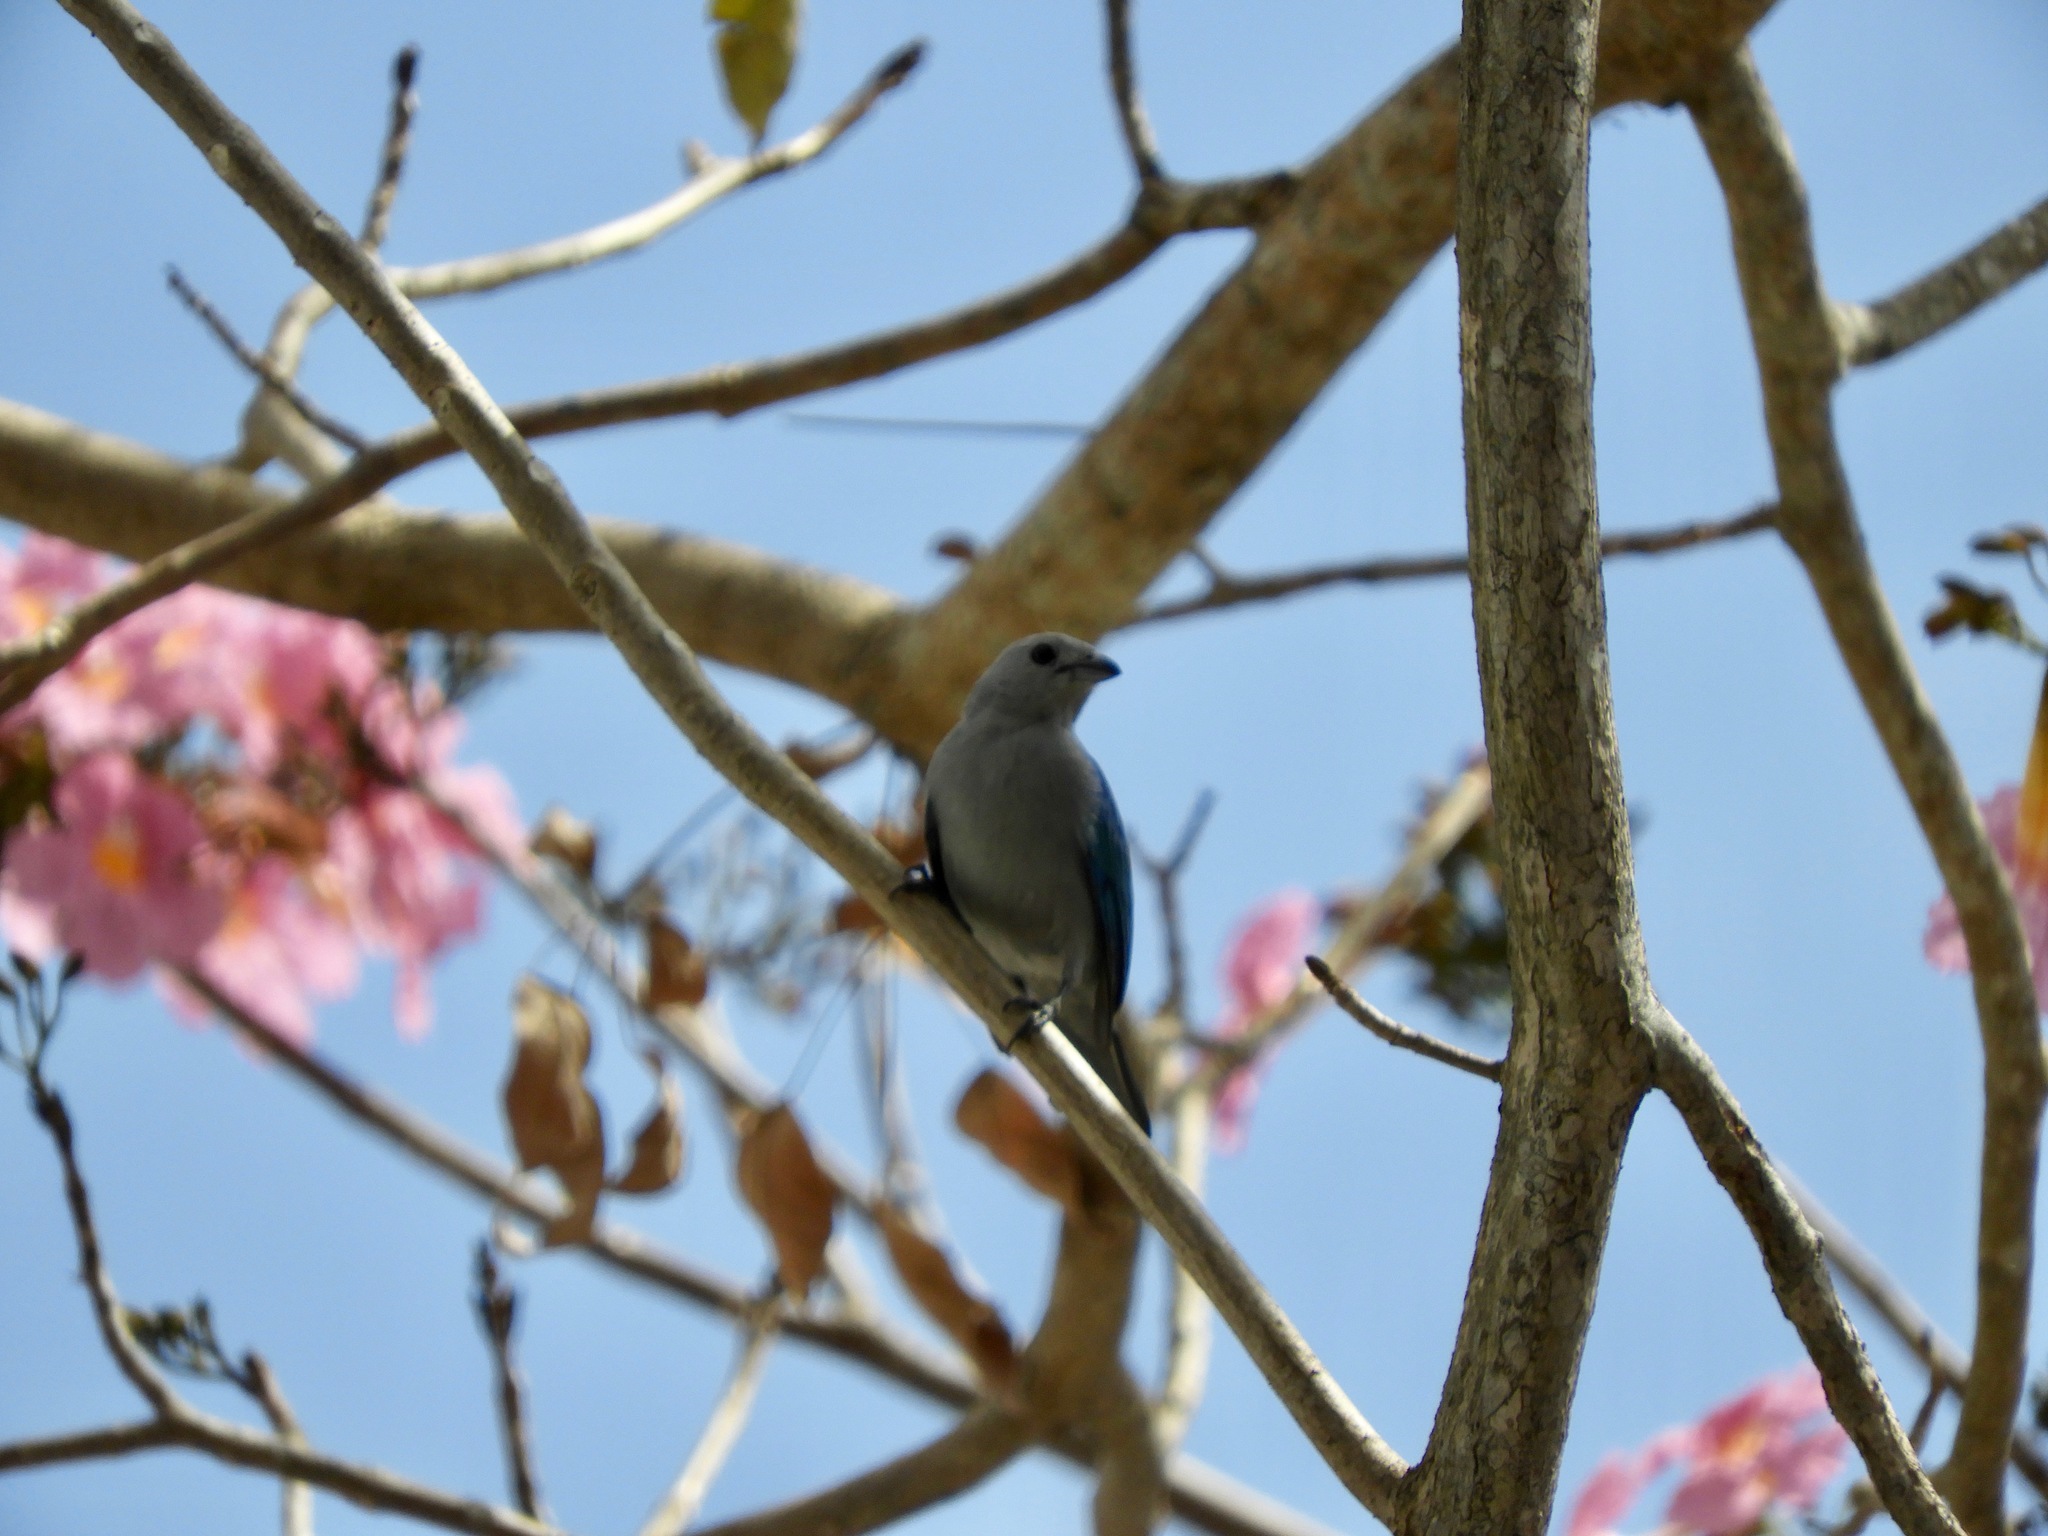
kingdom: Animalia
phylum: Chordata
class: Aves
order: Passeriformes
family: Thraupidae
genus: Thraupis
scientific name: Thraupis episcopus
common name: Blue-grey tanager
